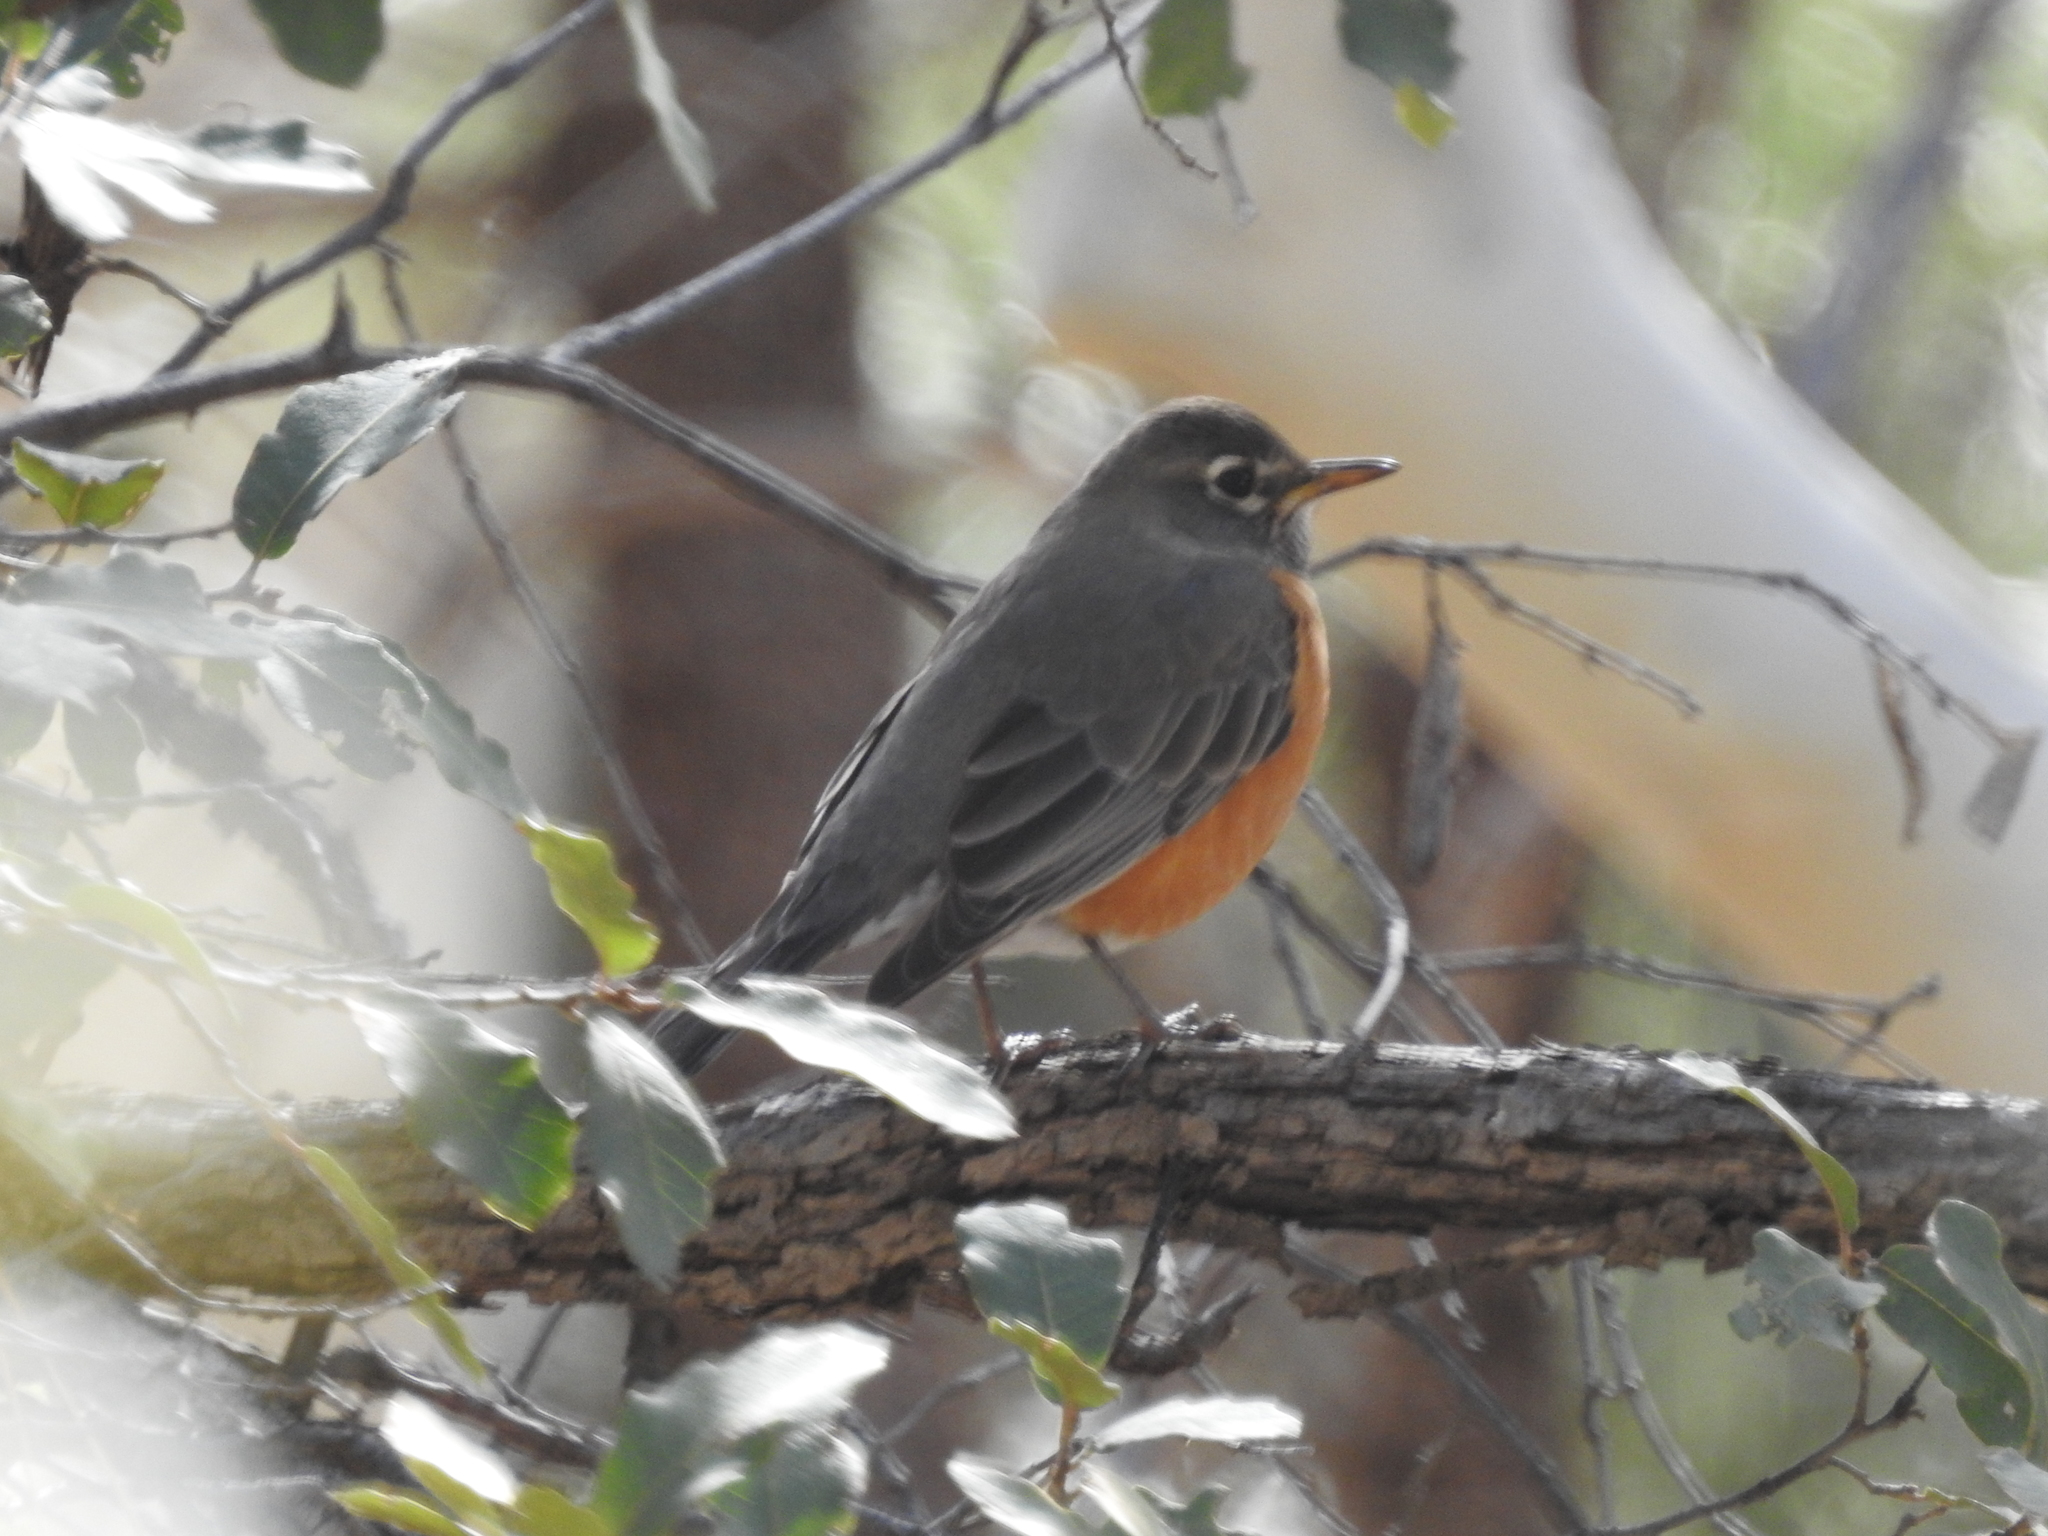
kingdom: Animalia
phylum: Chordata
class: Aves
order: Passeriformes
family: Turdidae
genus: Turdus
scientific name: Turdus migratorius
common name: American robin
